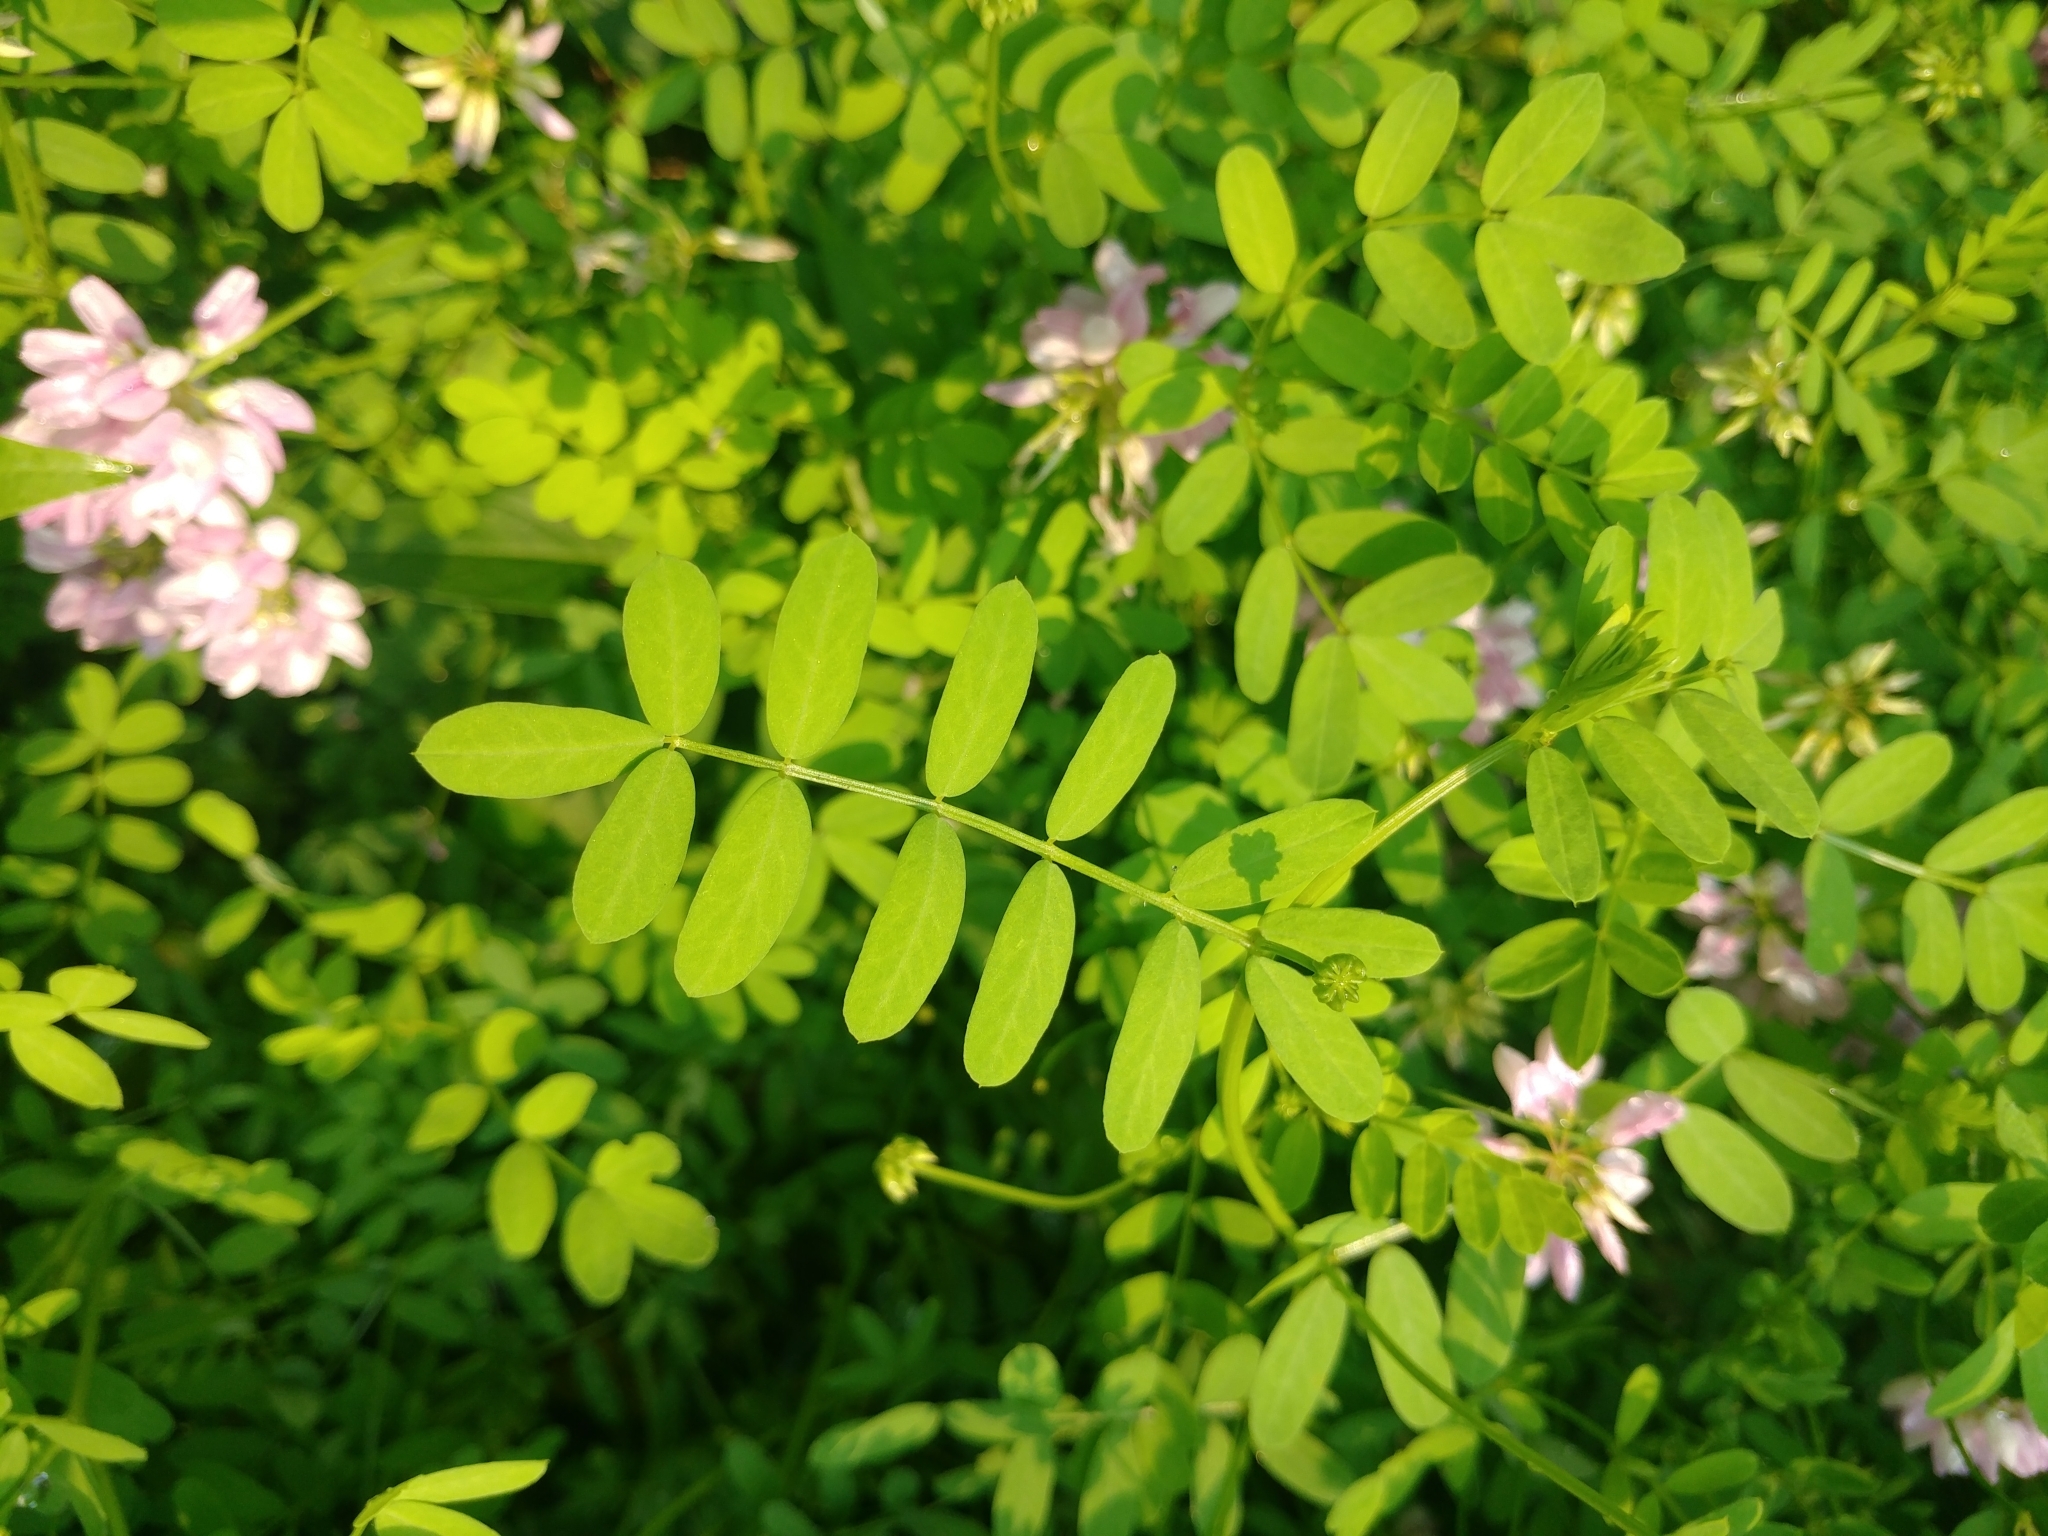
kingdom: Plantae
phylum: Tracheophyta
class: Magnoliopsida
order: Fabales
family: Fabaceae
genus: Coronilla
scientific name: Coronilla varia
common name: Crownvetch
